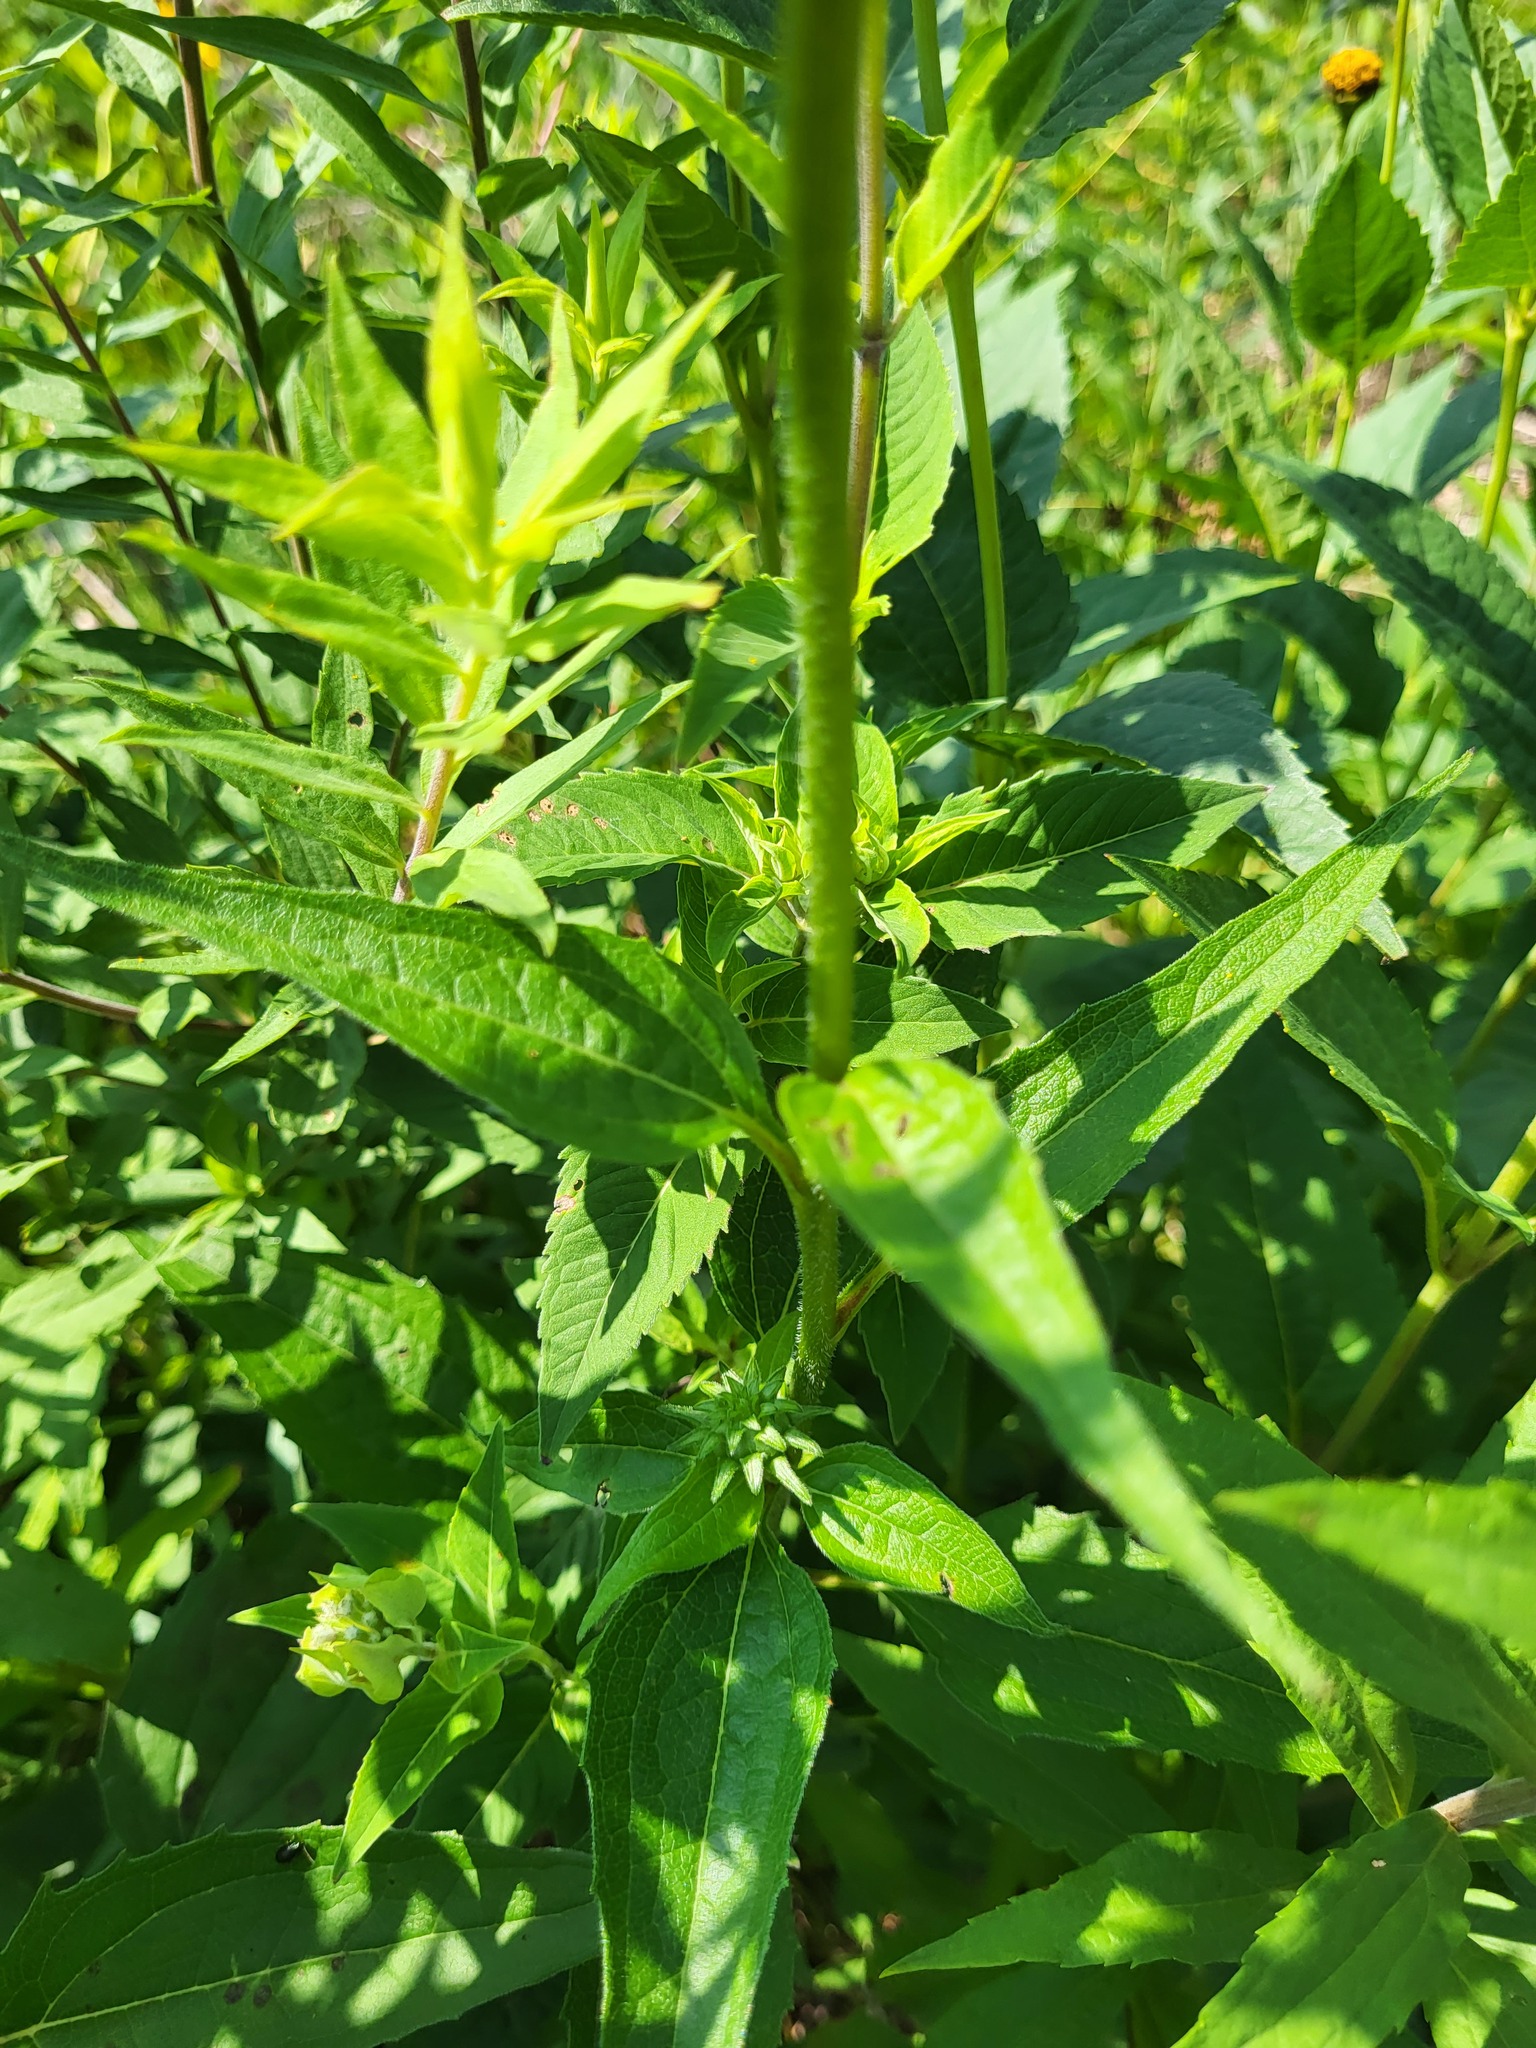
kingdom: Plantae
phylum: Tracheophyta
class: Magnoliopsida
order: Asterales
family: Asteraceae
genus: Echinacea
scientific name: Echinacea purpurea
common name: Broad-leaved purple coneflower
